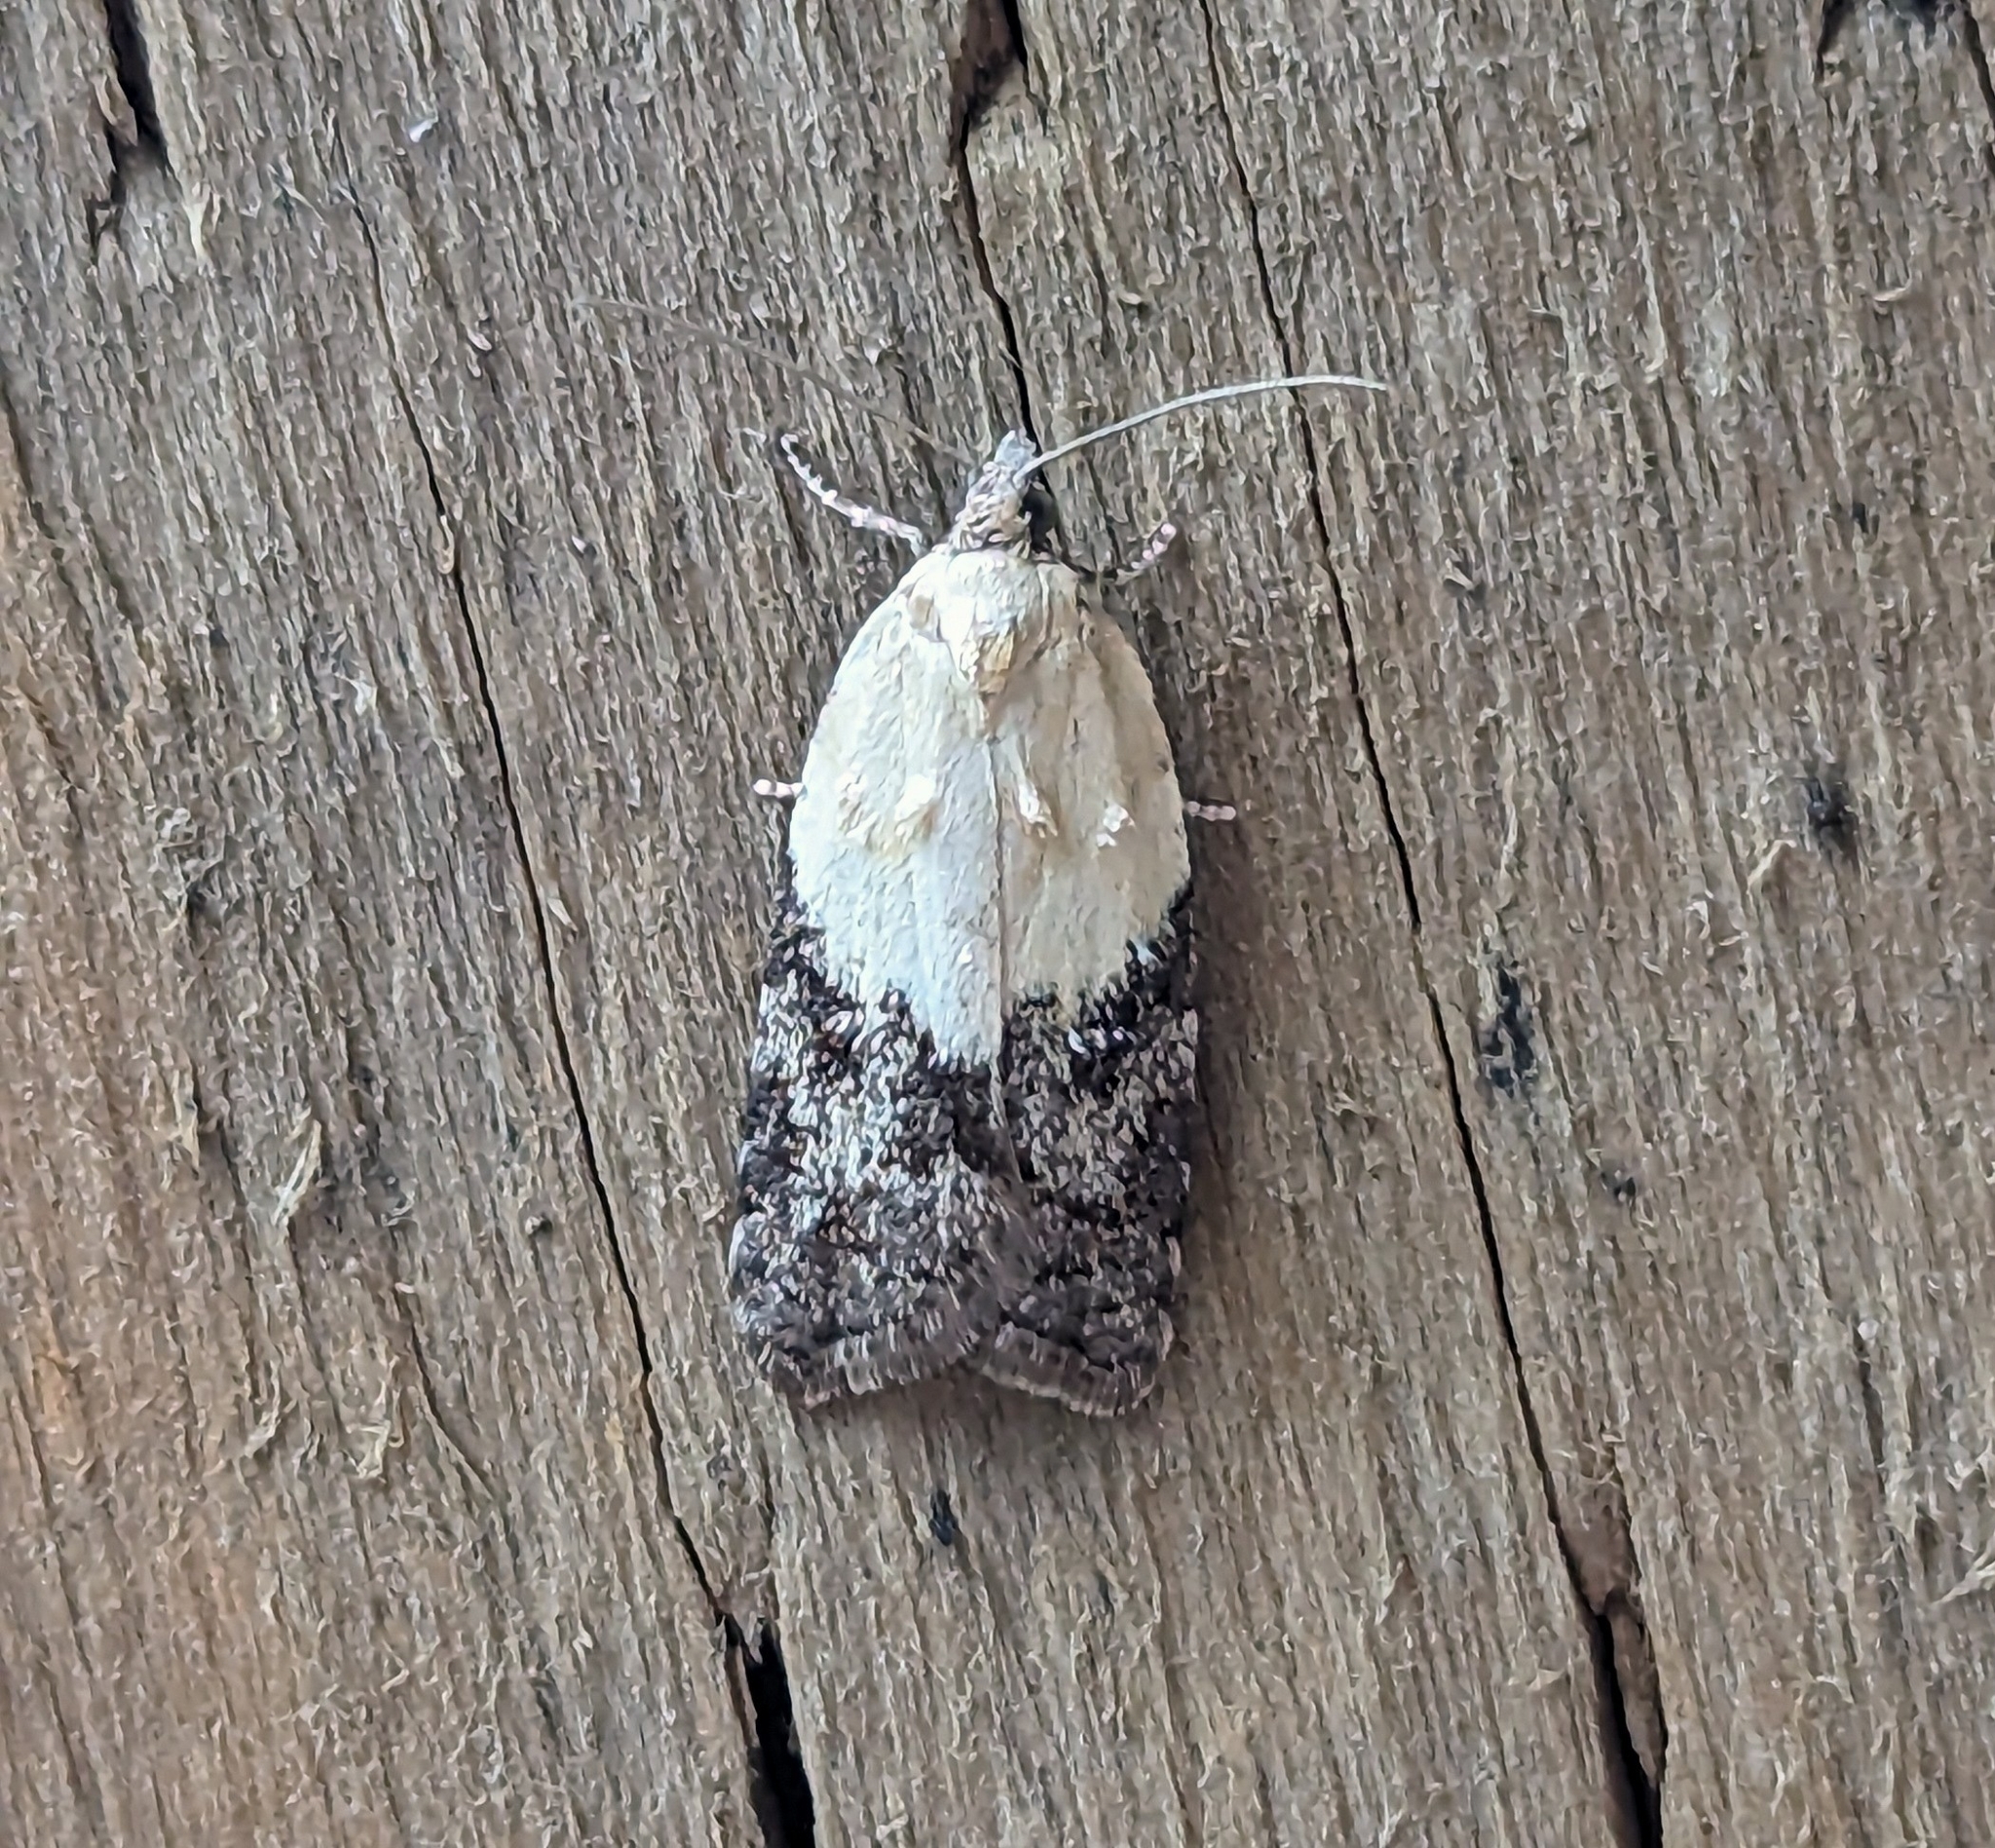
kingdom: Animalia
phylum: Arthropoda
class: Insecta
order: Lepidoptera
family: Tortricidae
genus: Acleris
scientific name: Acleris variegana
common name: Garden rose tortrix
